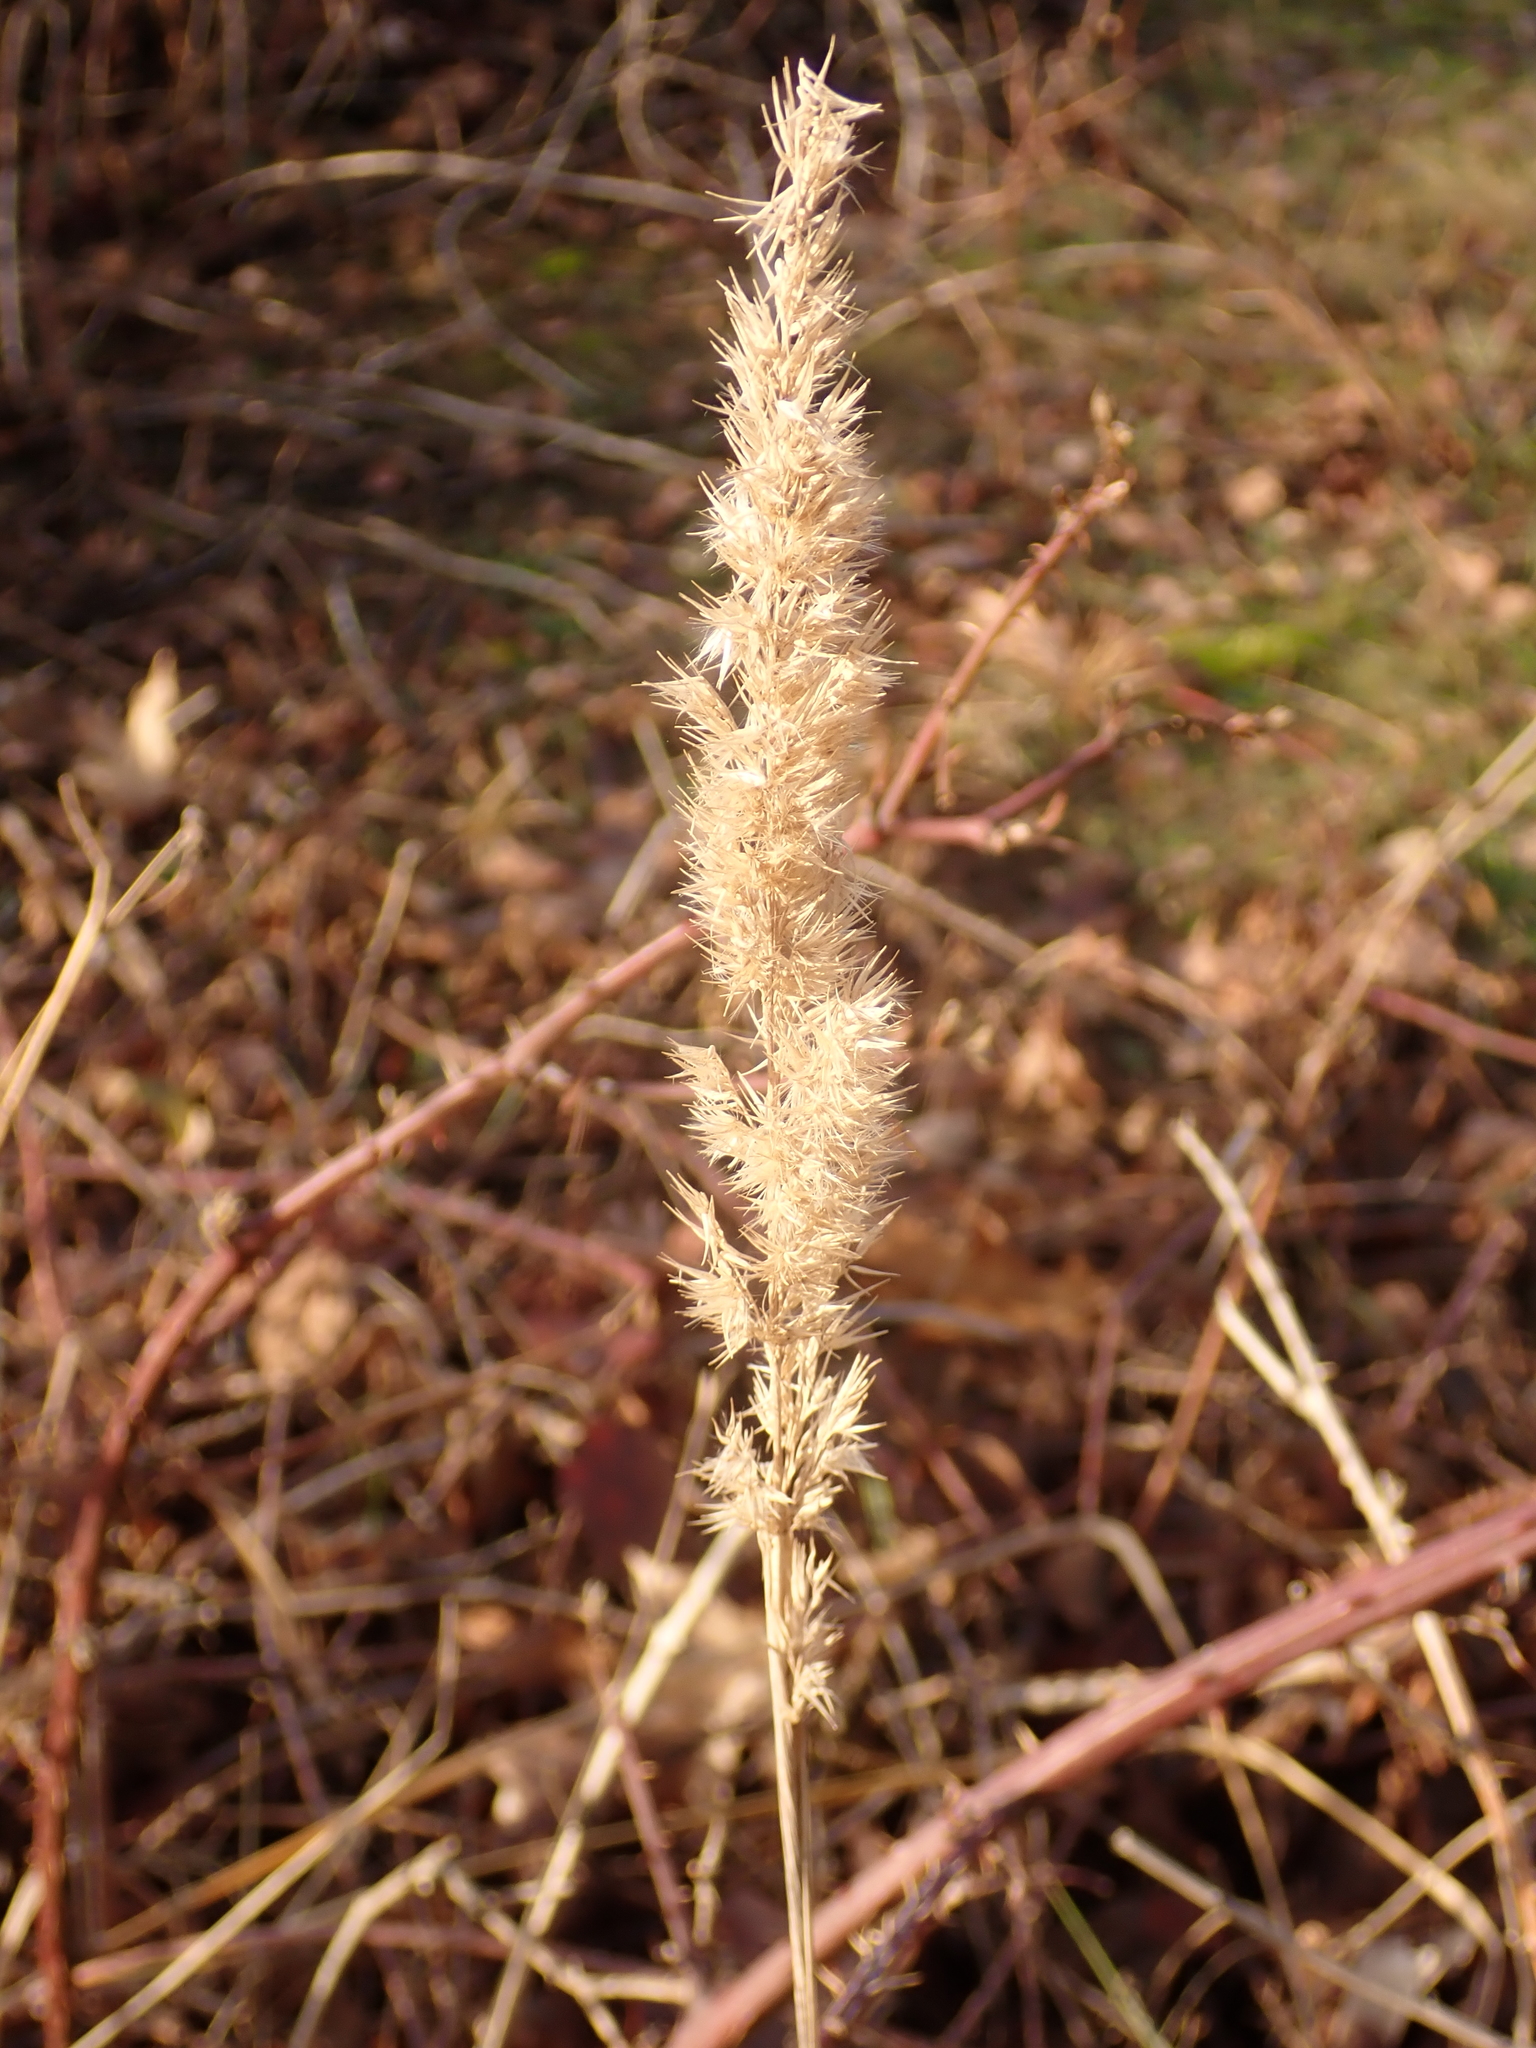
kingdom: Plantae
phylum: Tracheophyta
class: Liliopsida
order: Poales
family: Poaceae
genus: Calamagrostis
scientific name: Calamagrostis epigejos
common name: Wood small-reed
